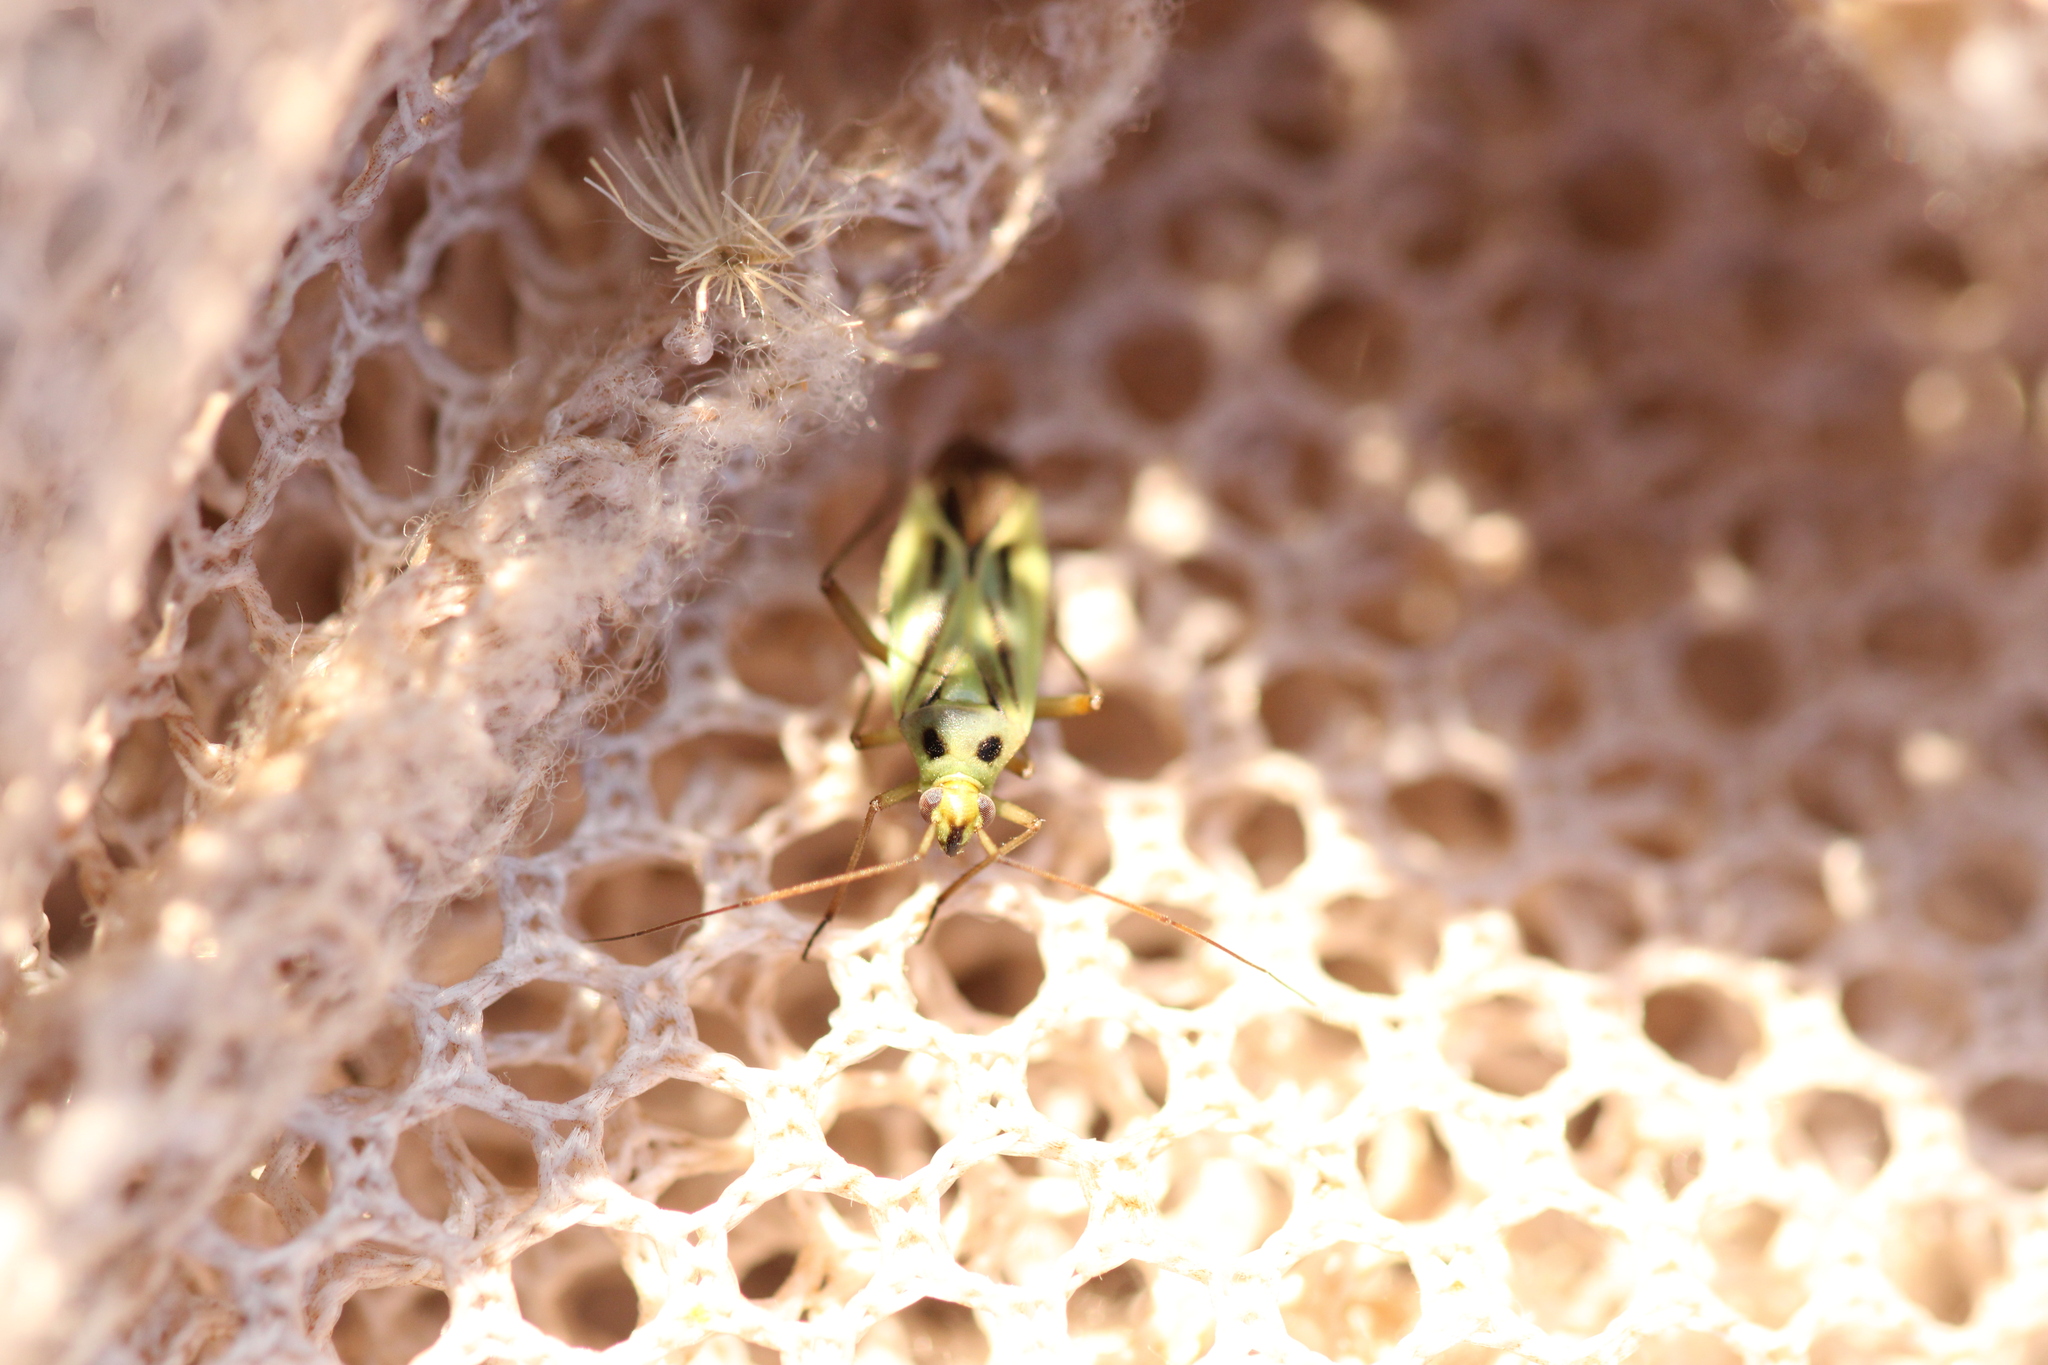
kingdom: Animalia
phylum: Arthropoda
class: Insecta
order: Hemiptera
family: Miridae
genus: Stenotus
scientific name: Stenotus binotatus
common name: Plant bug
